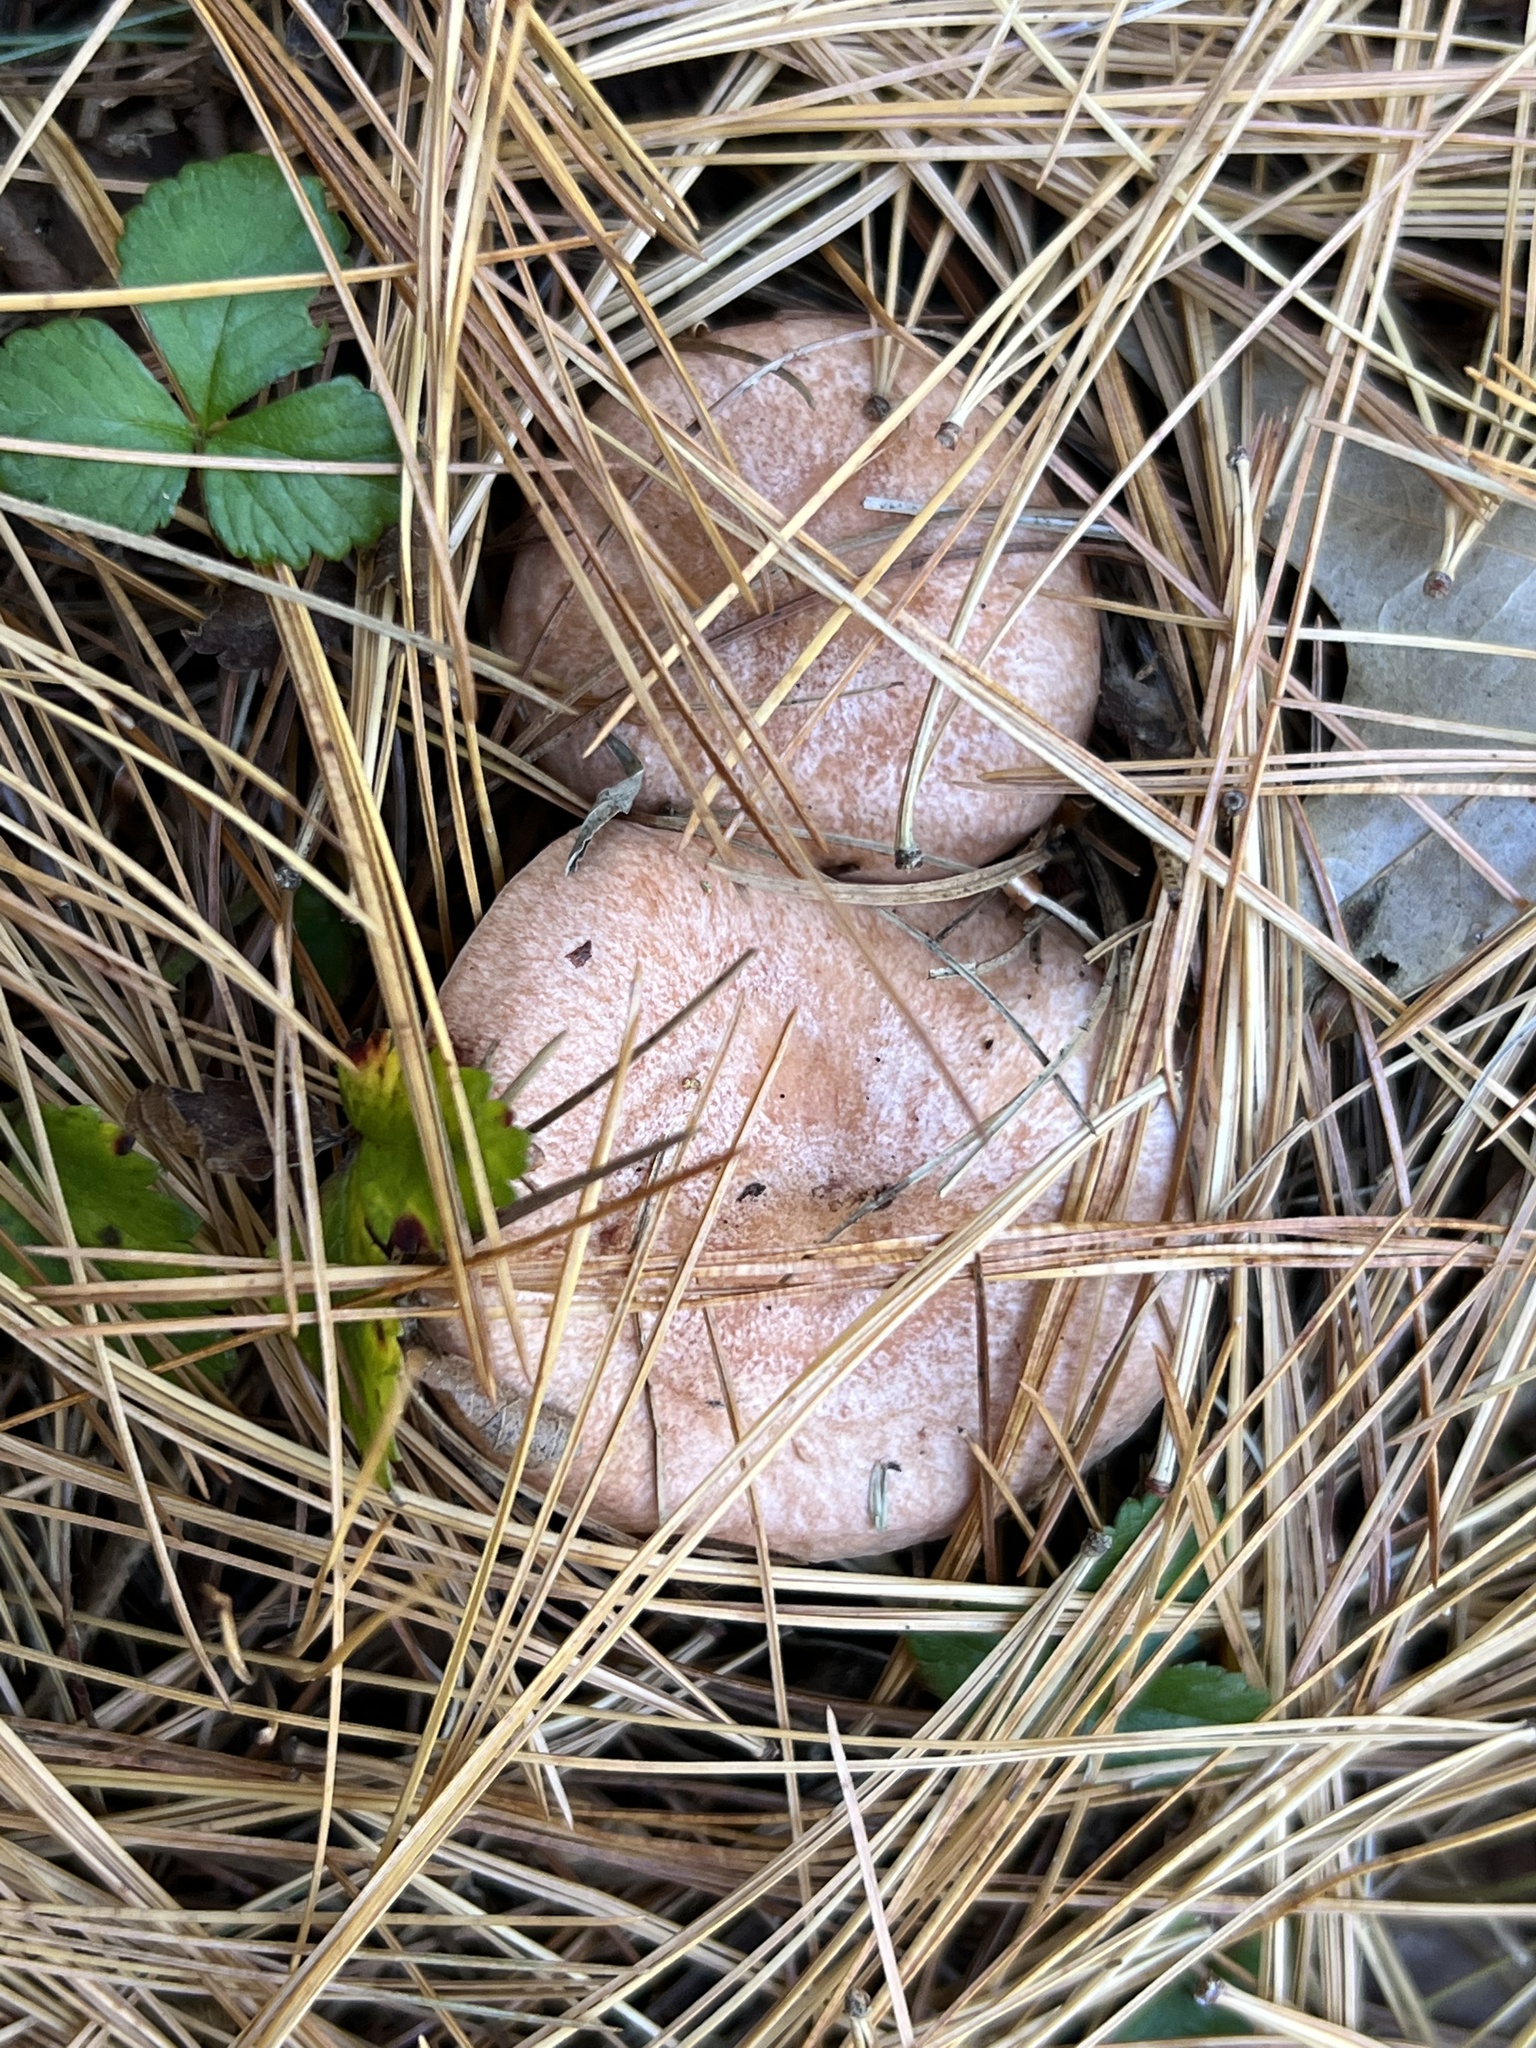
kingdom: Fungi
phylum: Basidiomycota
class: Agaricomycetes
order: Russulales
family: Russulaceae
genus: Lactarius
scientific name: Lactarius vinaceorufescens
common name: Yellow-latex milkcap
